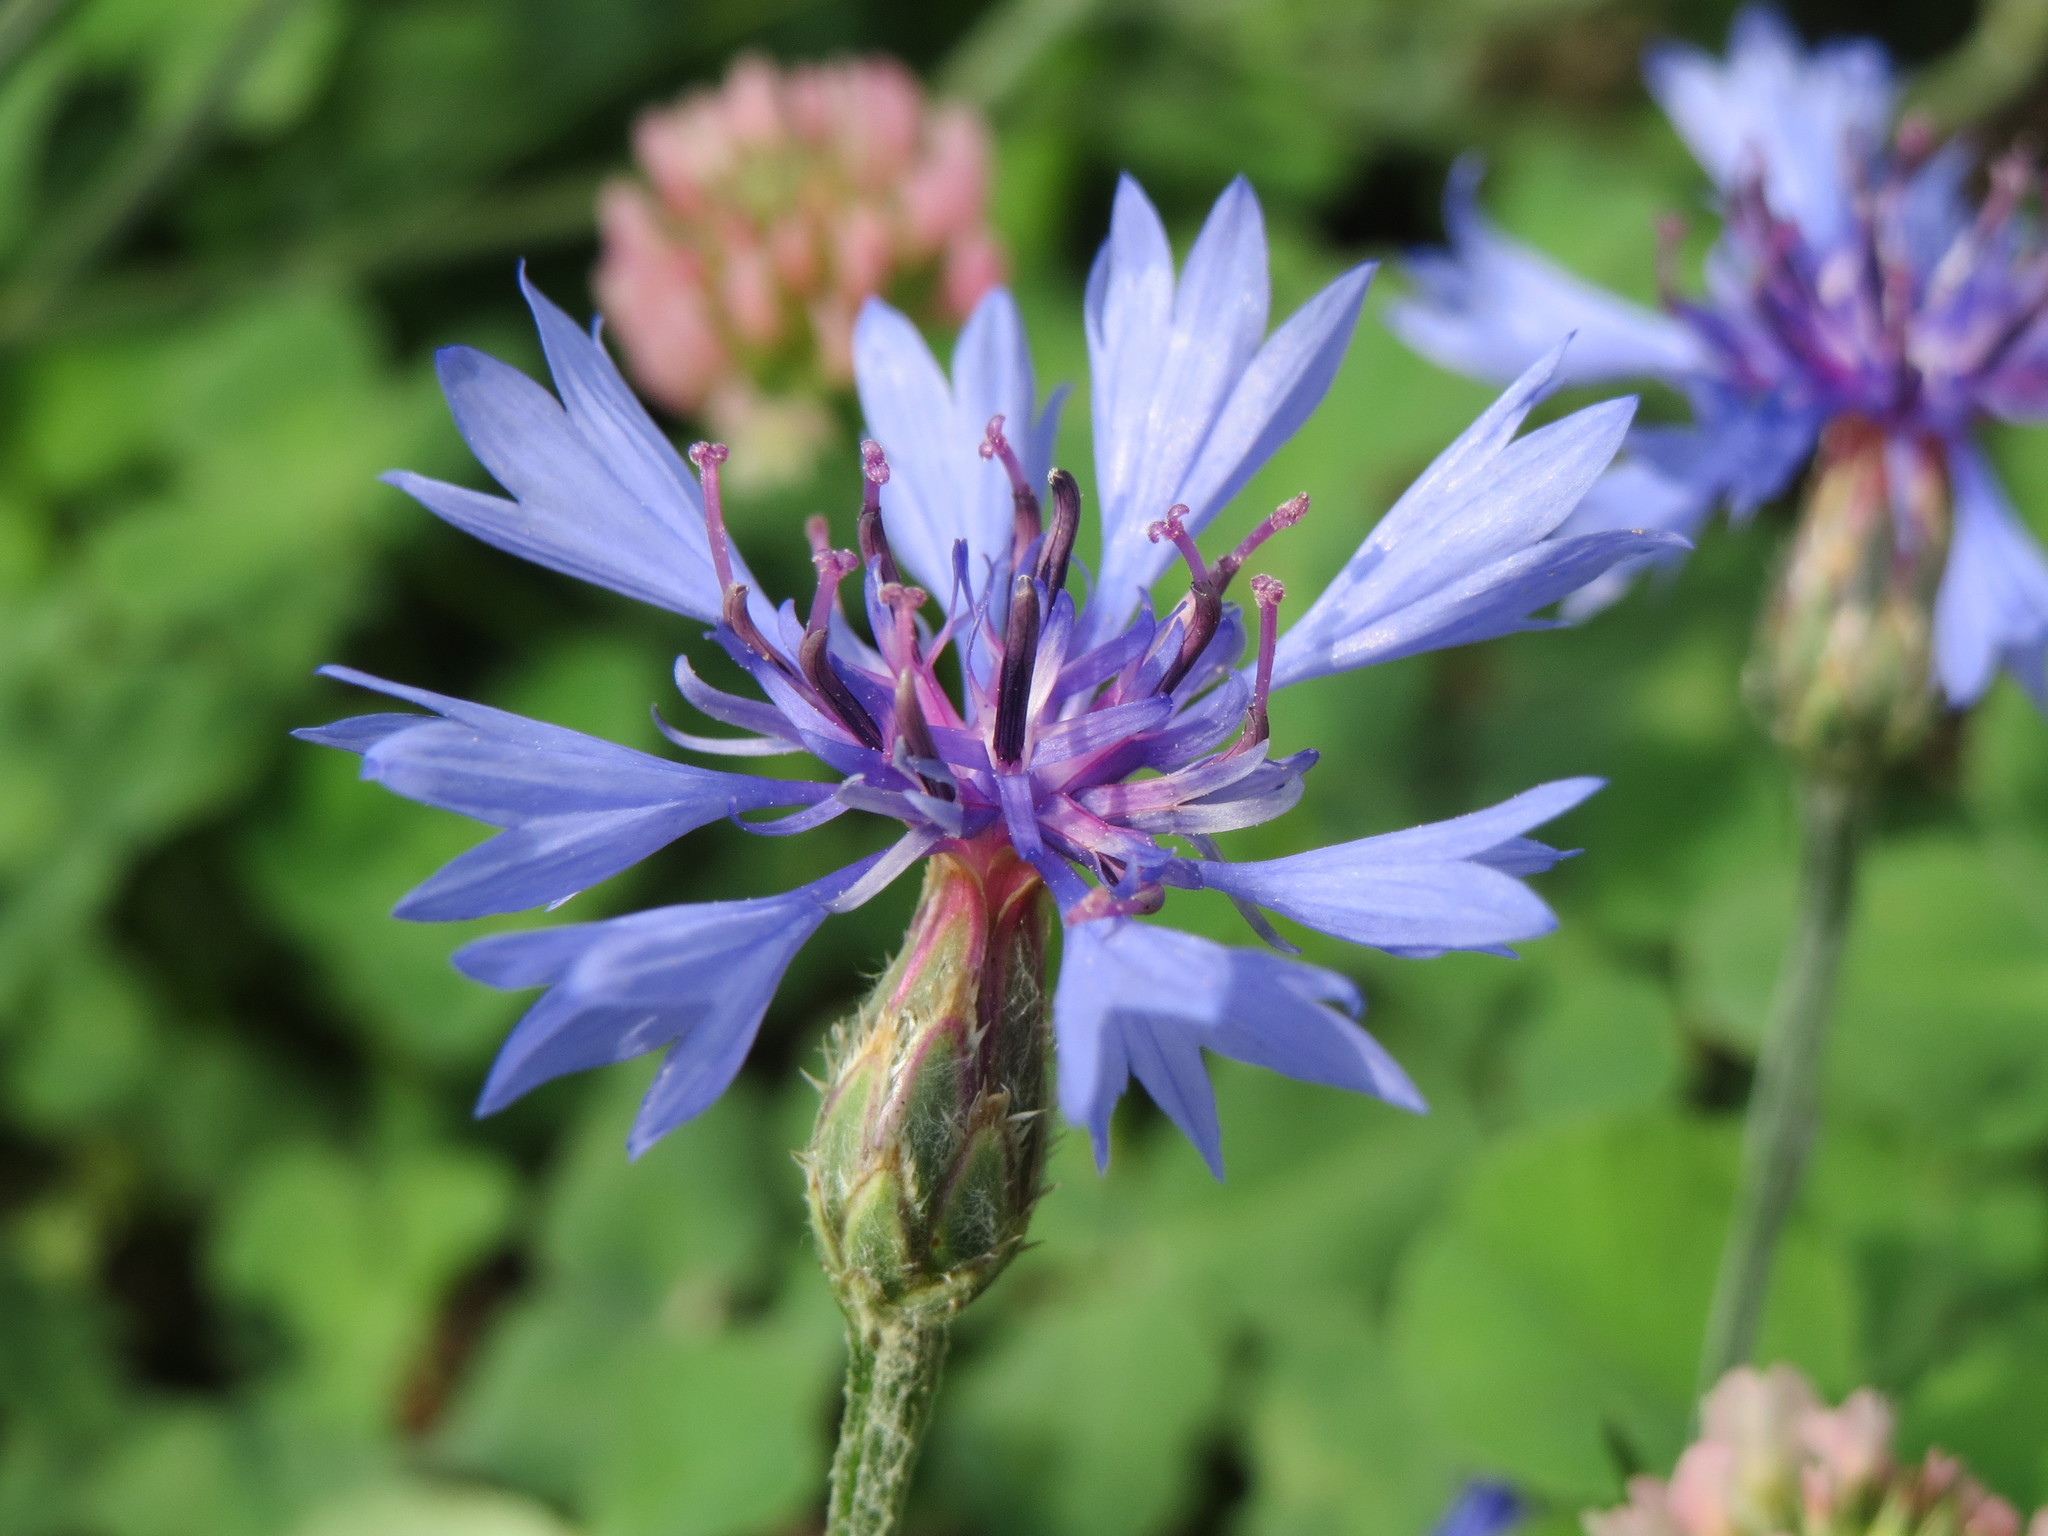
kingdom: Plantae
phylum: Tracheophyta
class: Magnoliopsida
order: Asterales
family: Asteraceae
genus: Centaurea
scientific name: Centaurea cyanus
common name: Cornflower
